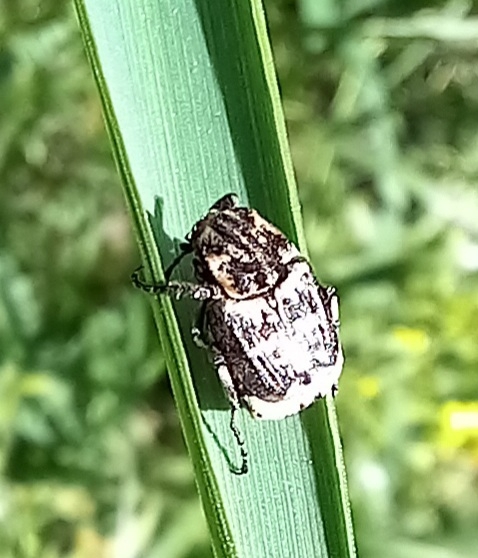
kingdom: Animalia
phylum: Arthropoda
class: Insecta
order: Coleoptera
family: Scarabaeidae
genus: Valgus
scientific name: Valgus hemipterus
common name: Bug flower chafer
